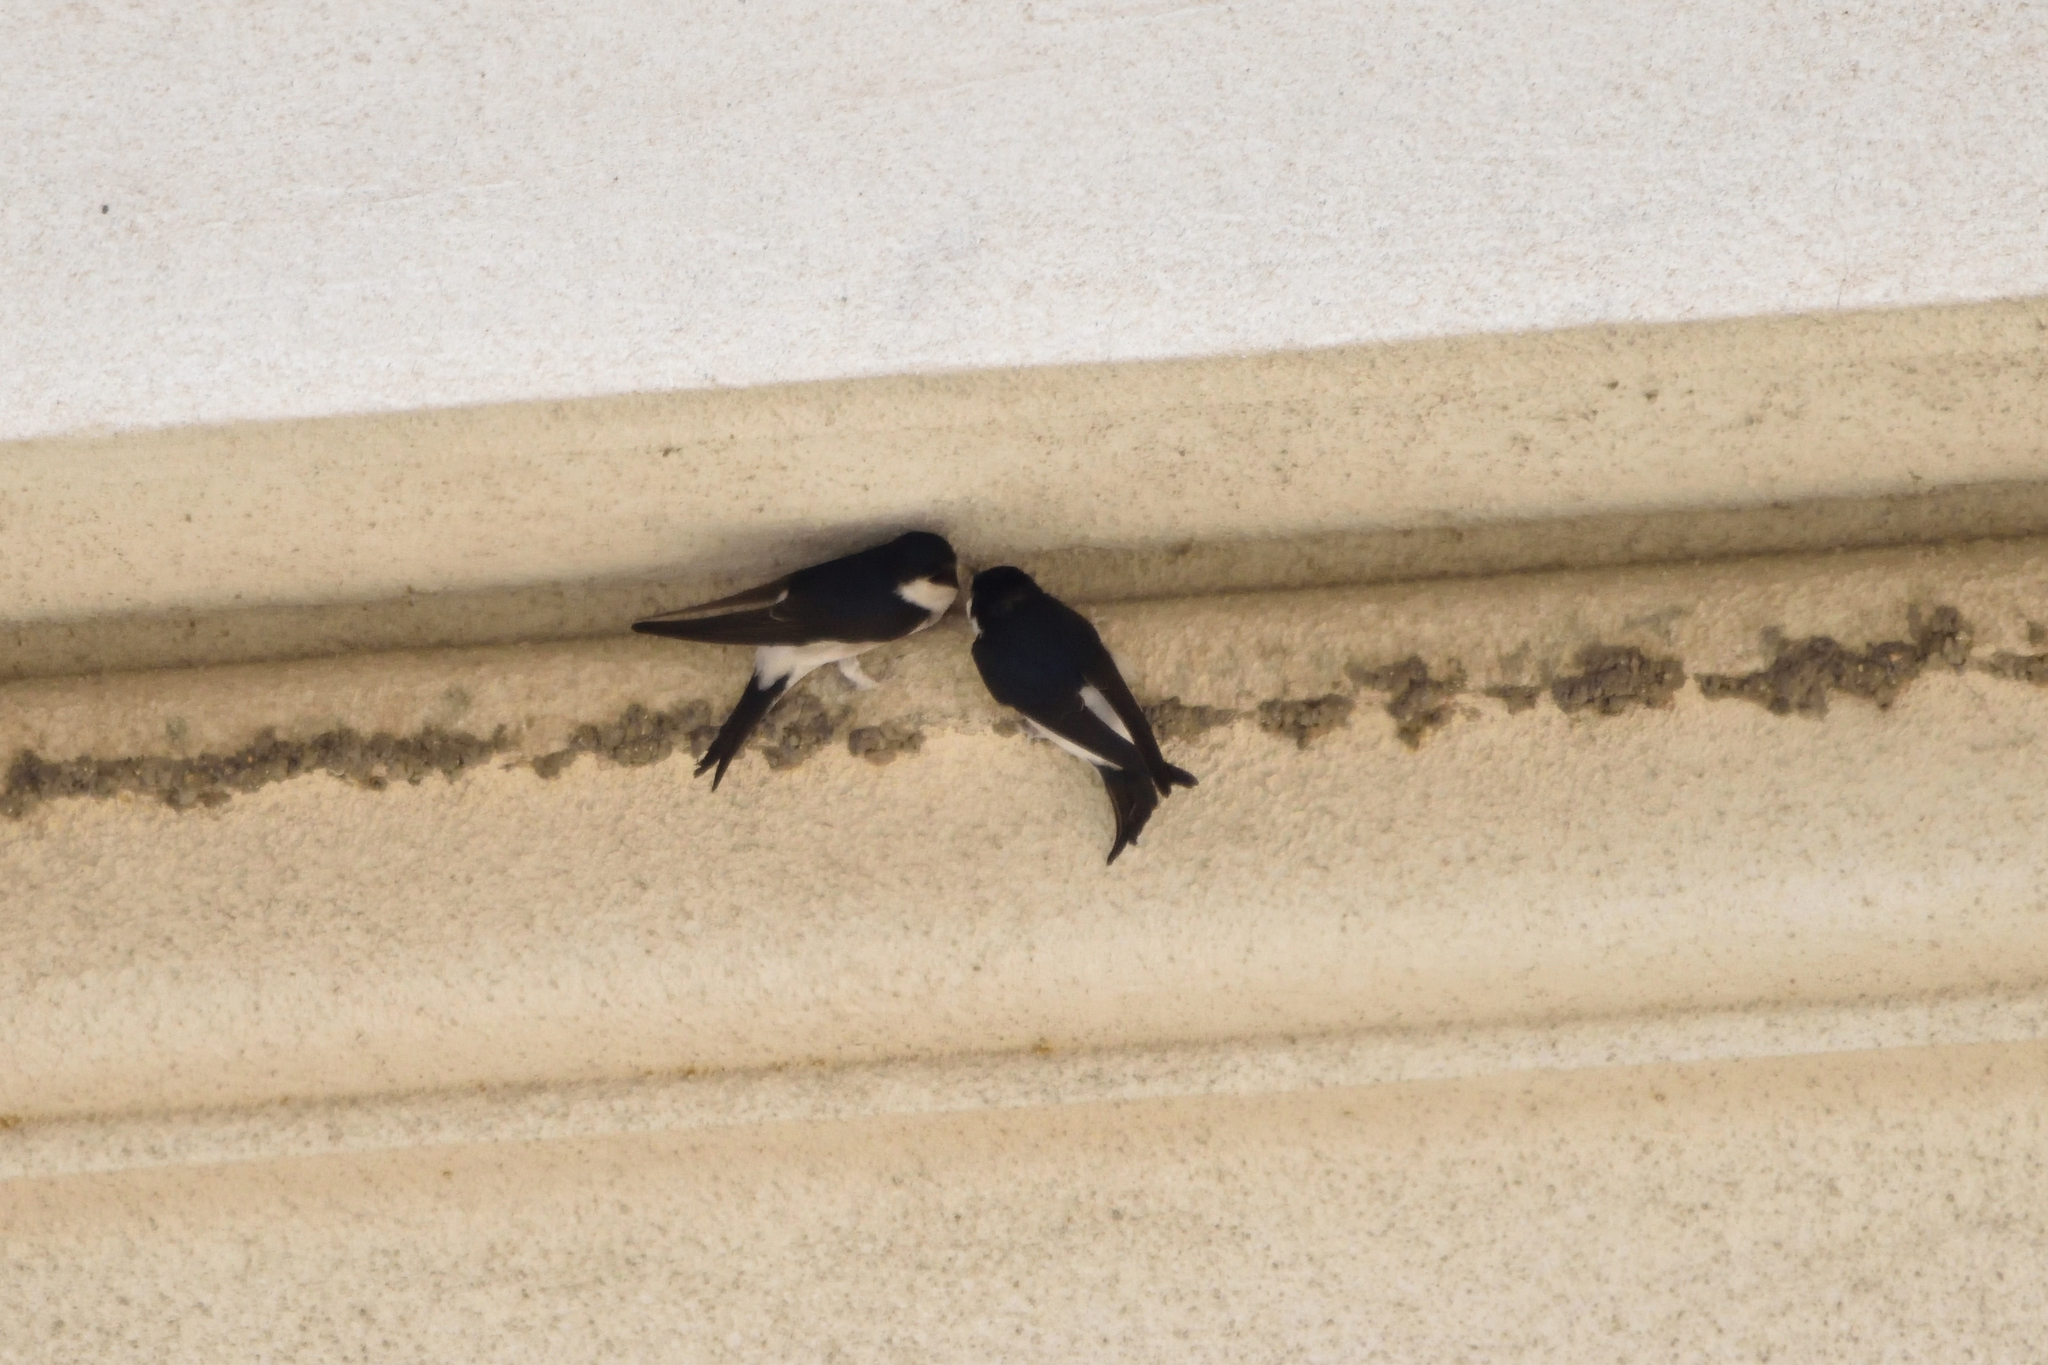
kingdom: Animalia
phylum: Chordata
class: Aves
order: Passeriformes
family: Hirundinidae
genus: Delichon
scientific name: Delichon urbicum
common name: Common house martin
